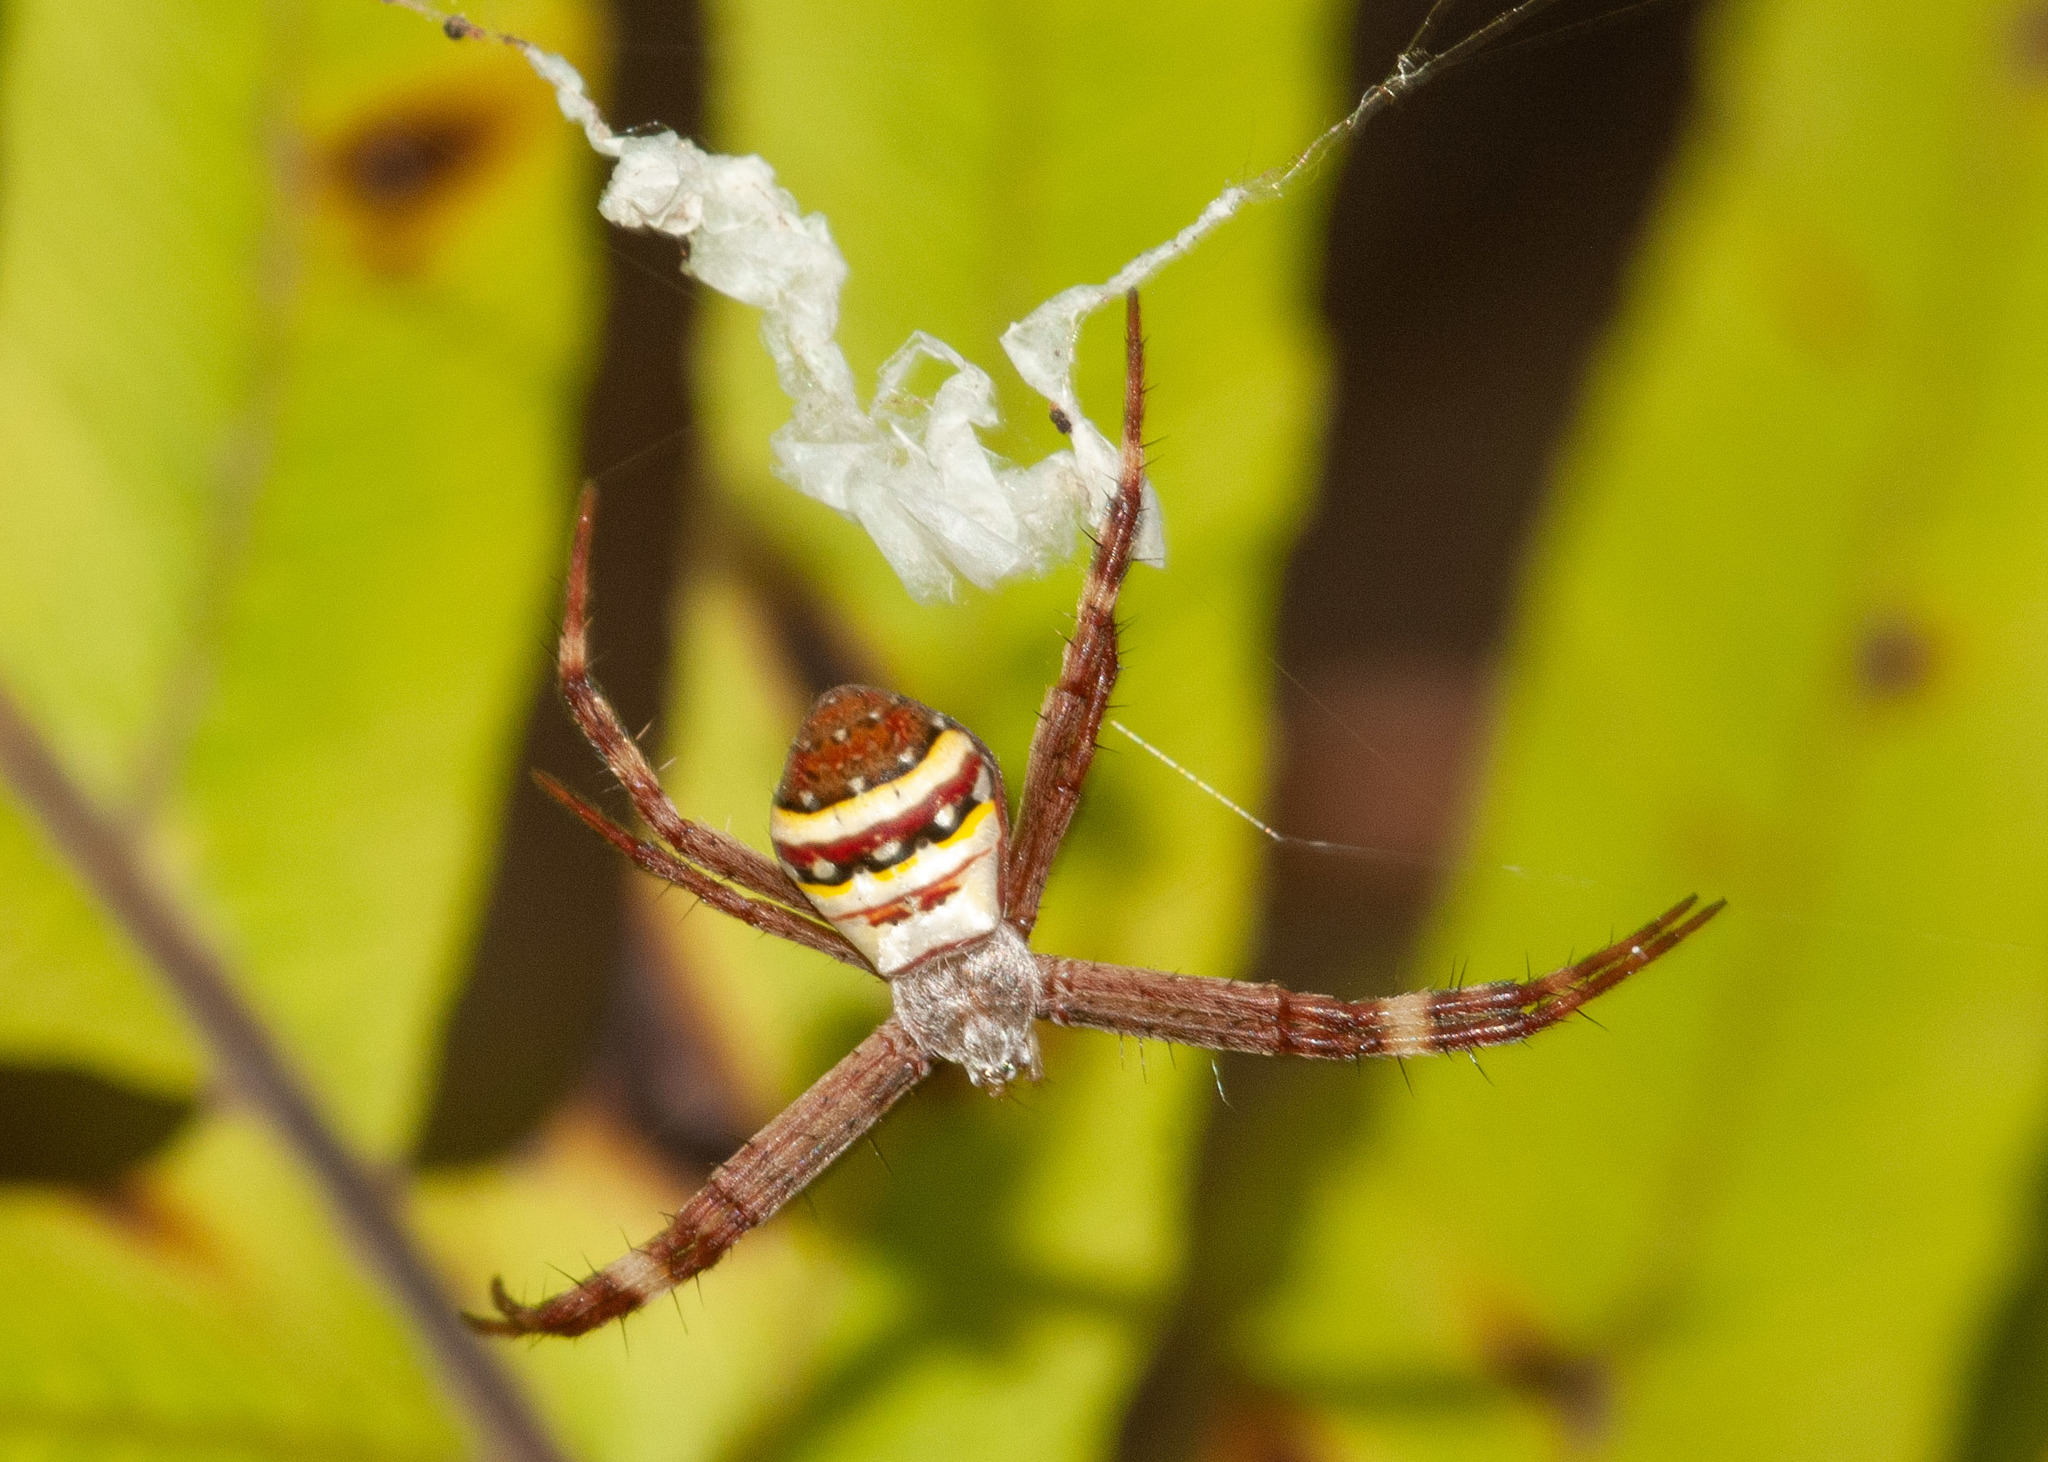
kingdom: Animalia
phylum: Arthropoda
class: Arachnida
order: Araneae
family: Araneidae
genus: Argiope
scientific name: Argiope keyserlingi
